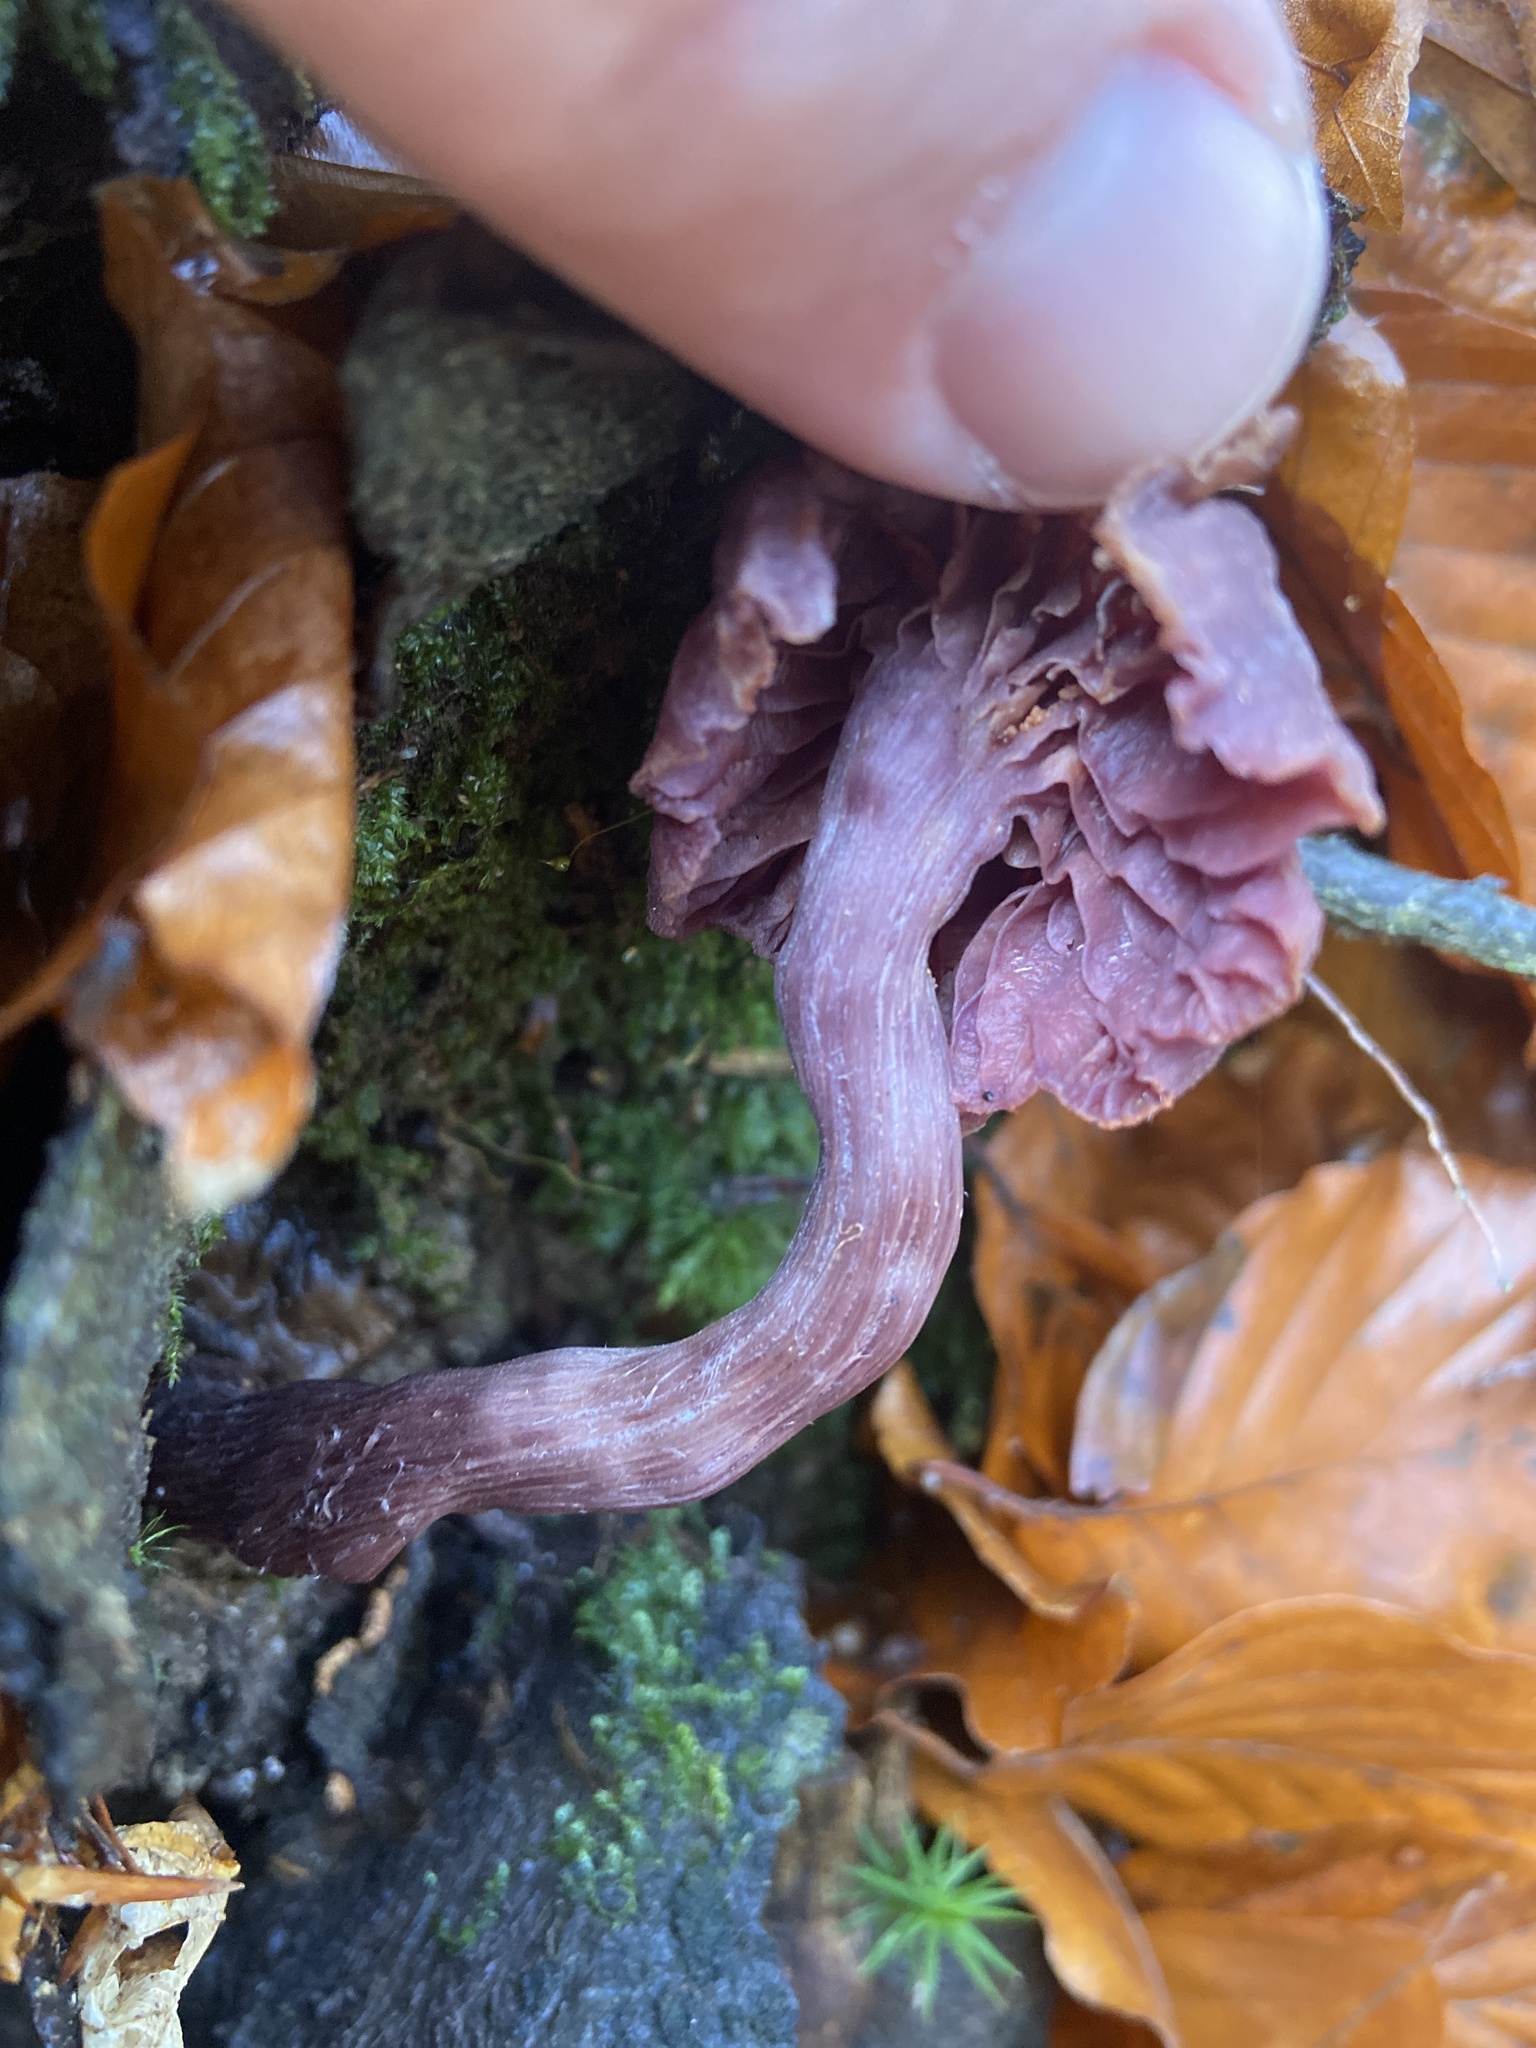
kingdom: Fungi
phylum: Basidiomycota
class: Agaricomycetes
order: Agaricales
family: Hydnangiaceae
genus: Laccaria
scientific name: Laccaria amethystina
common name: Amethyst deceiver
